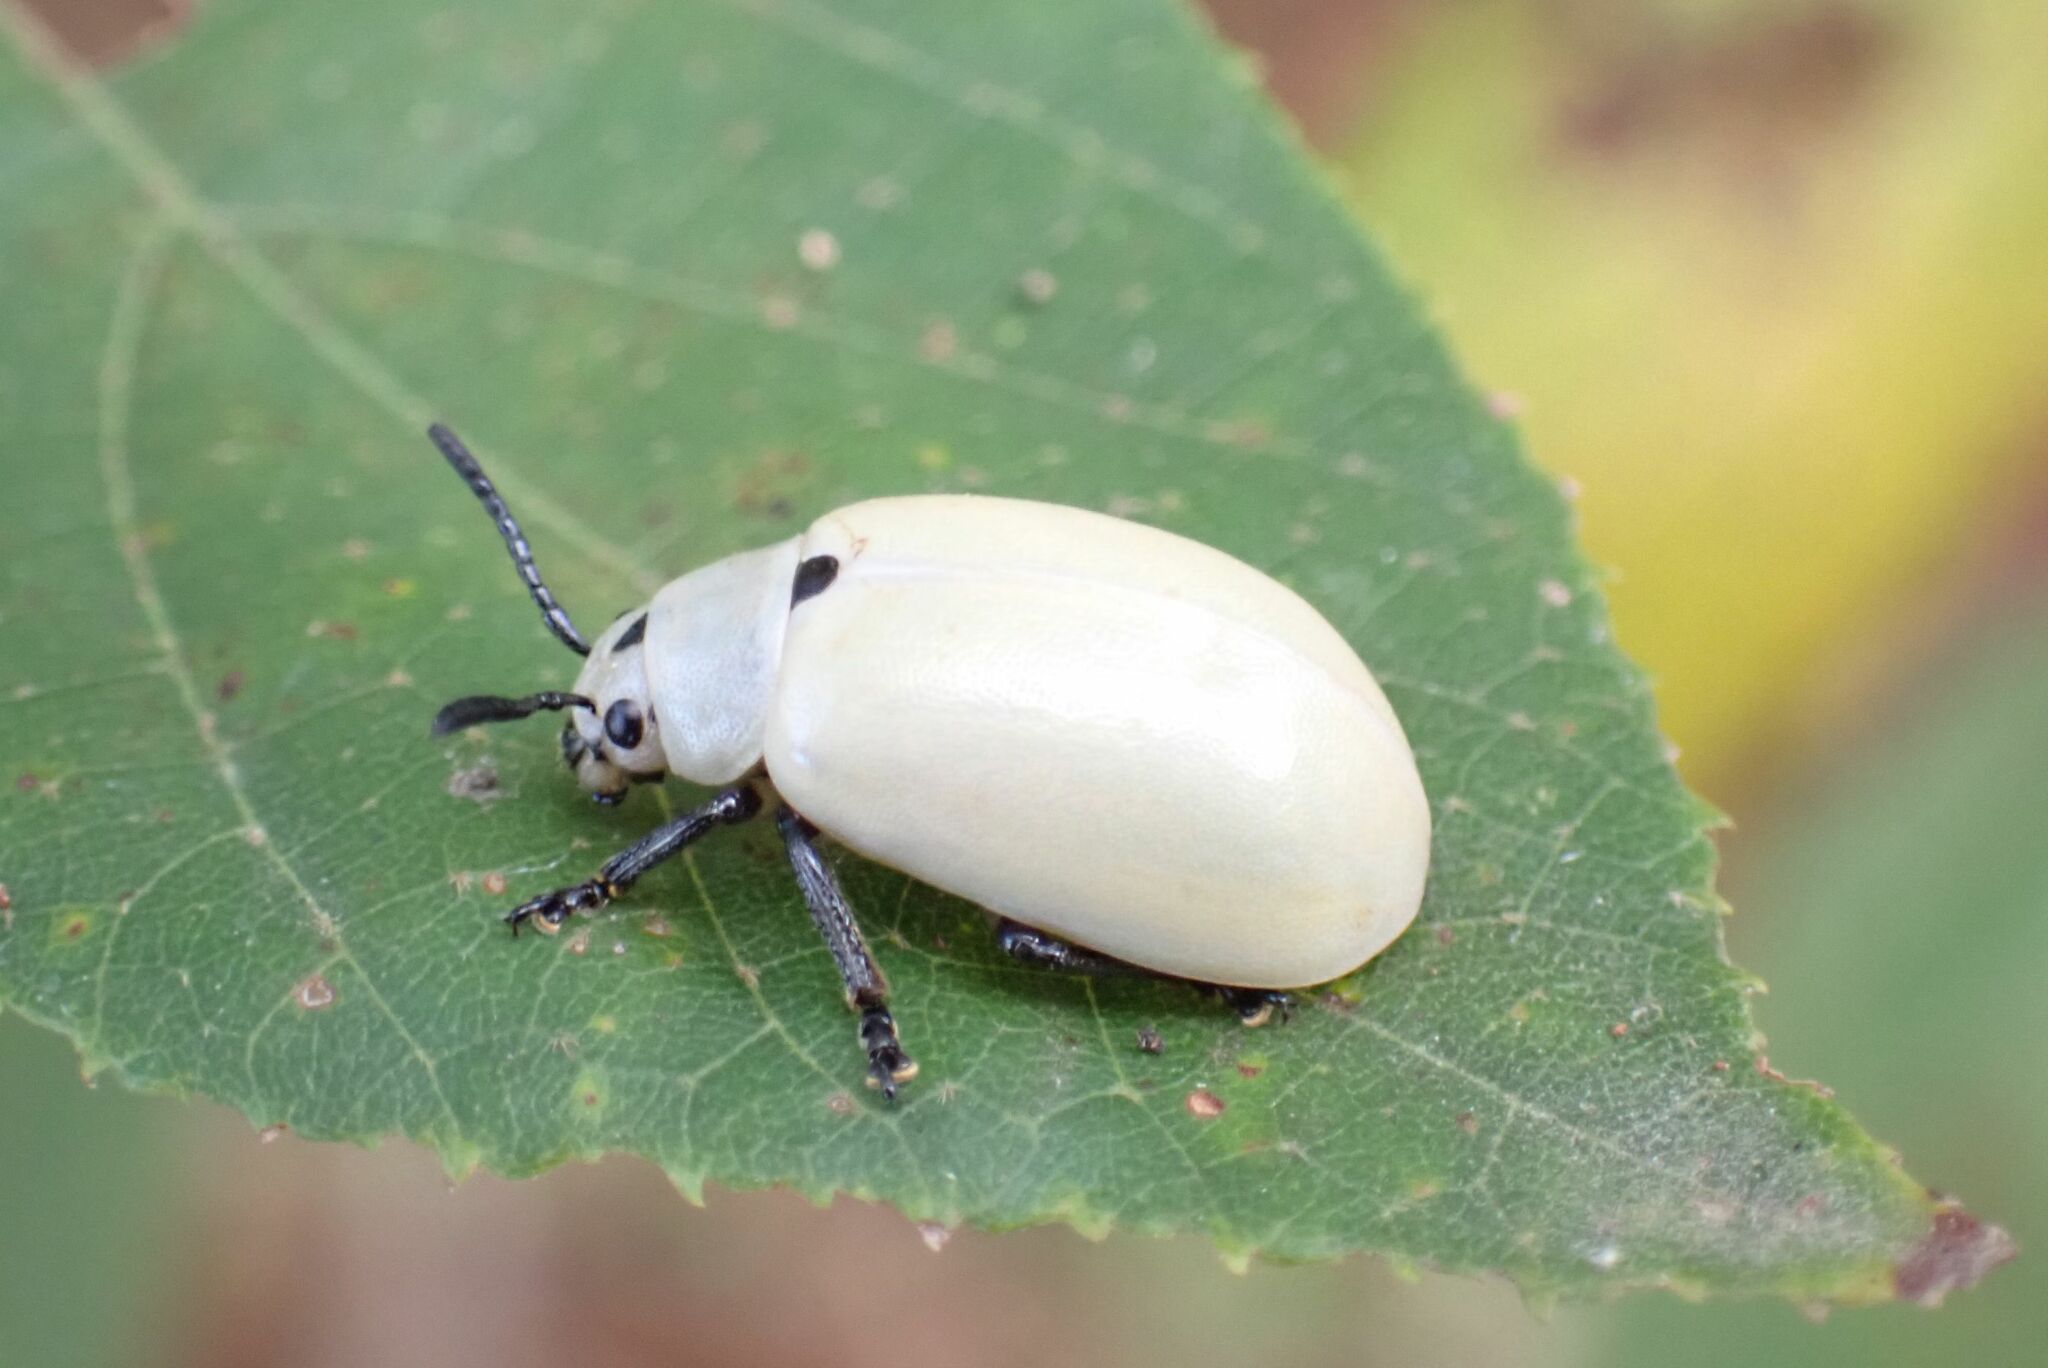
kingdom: Animalia
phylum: Arthropoda
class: Insecta
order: Coleoptera
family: Chrysomelidae
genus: Cerochroa
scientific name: Cerochroa
